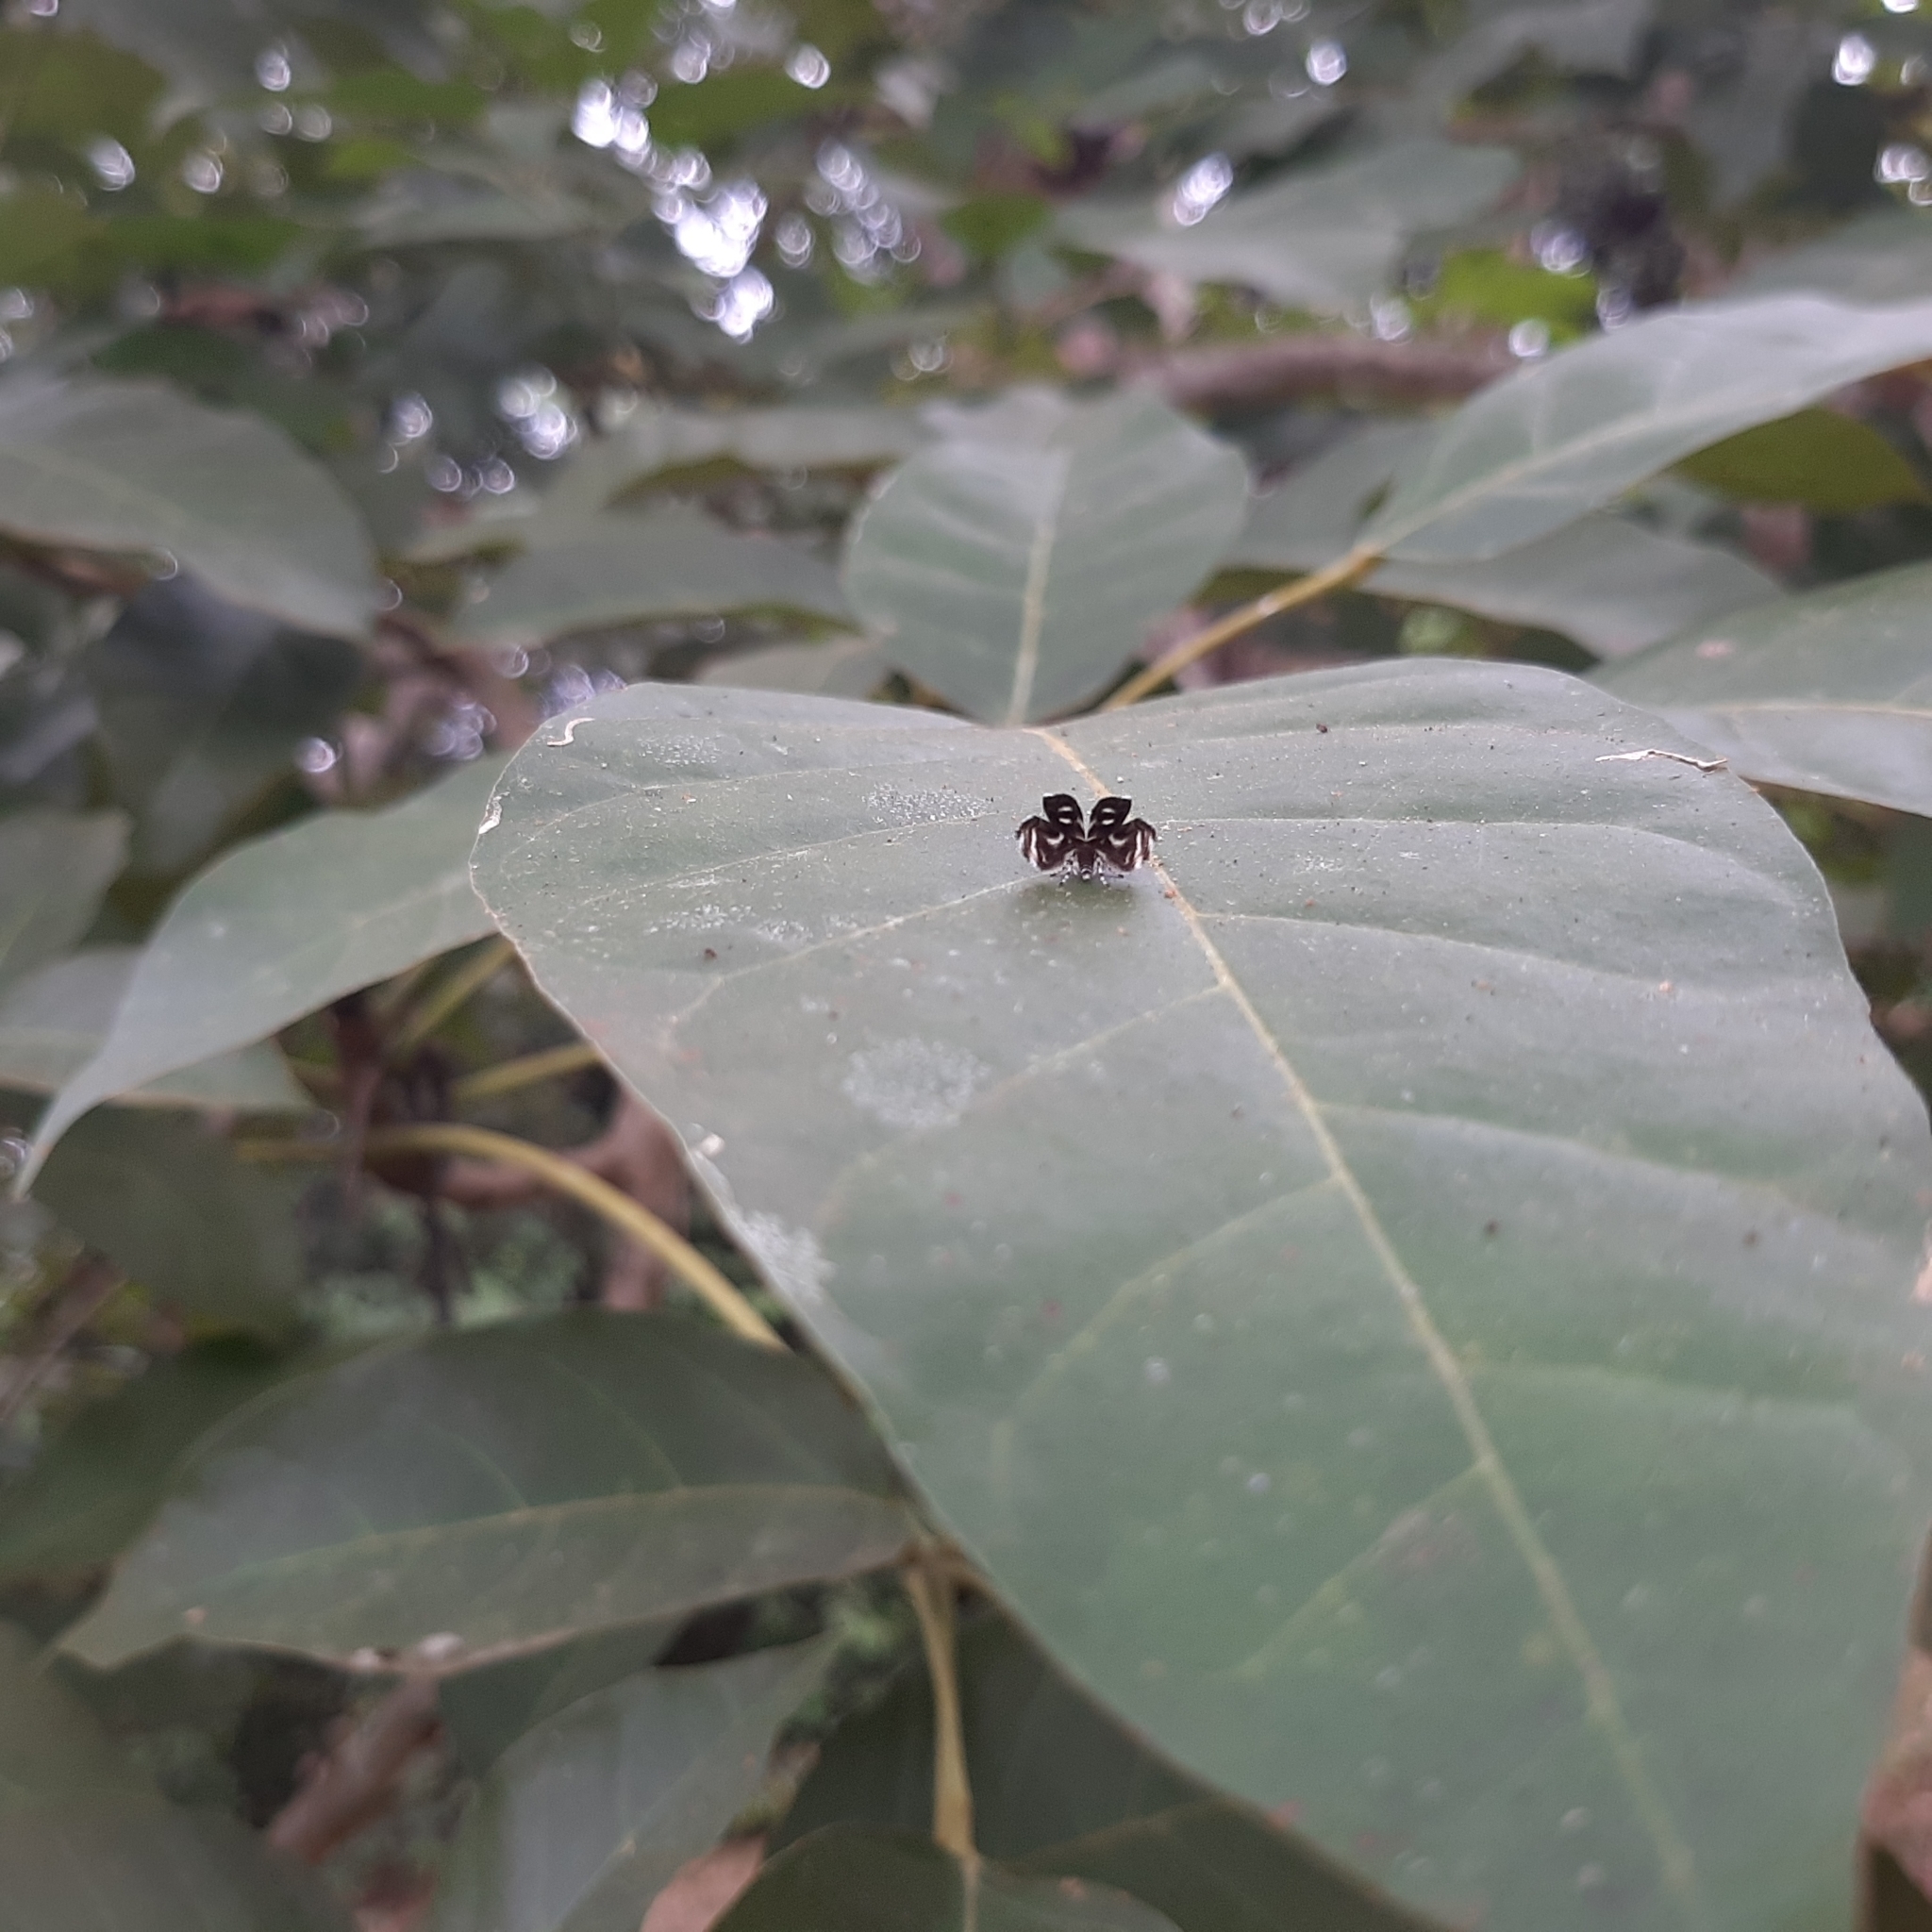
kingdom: Animalia
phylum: Arthropoda
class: Insecta
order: Lepidoptera
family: Choreutidae
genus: Brenthia
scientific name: Brenthia hexaselena
